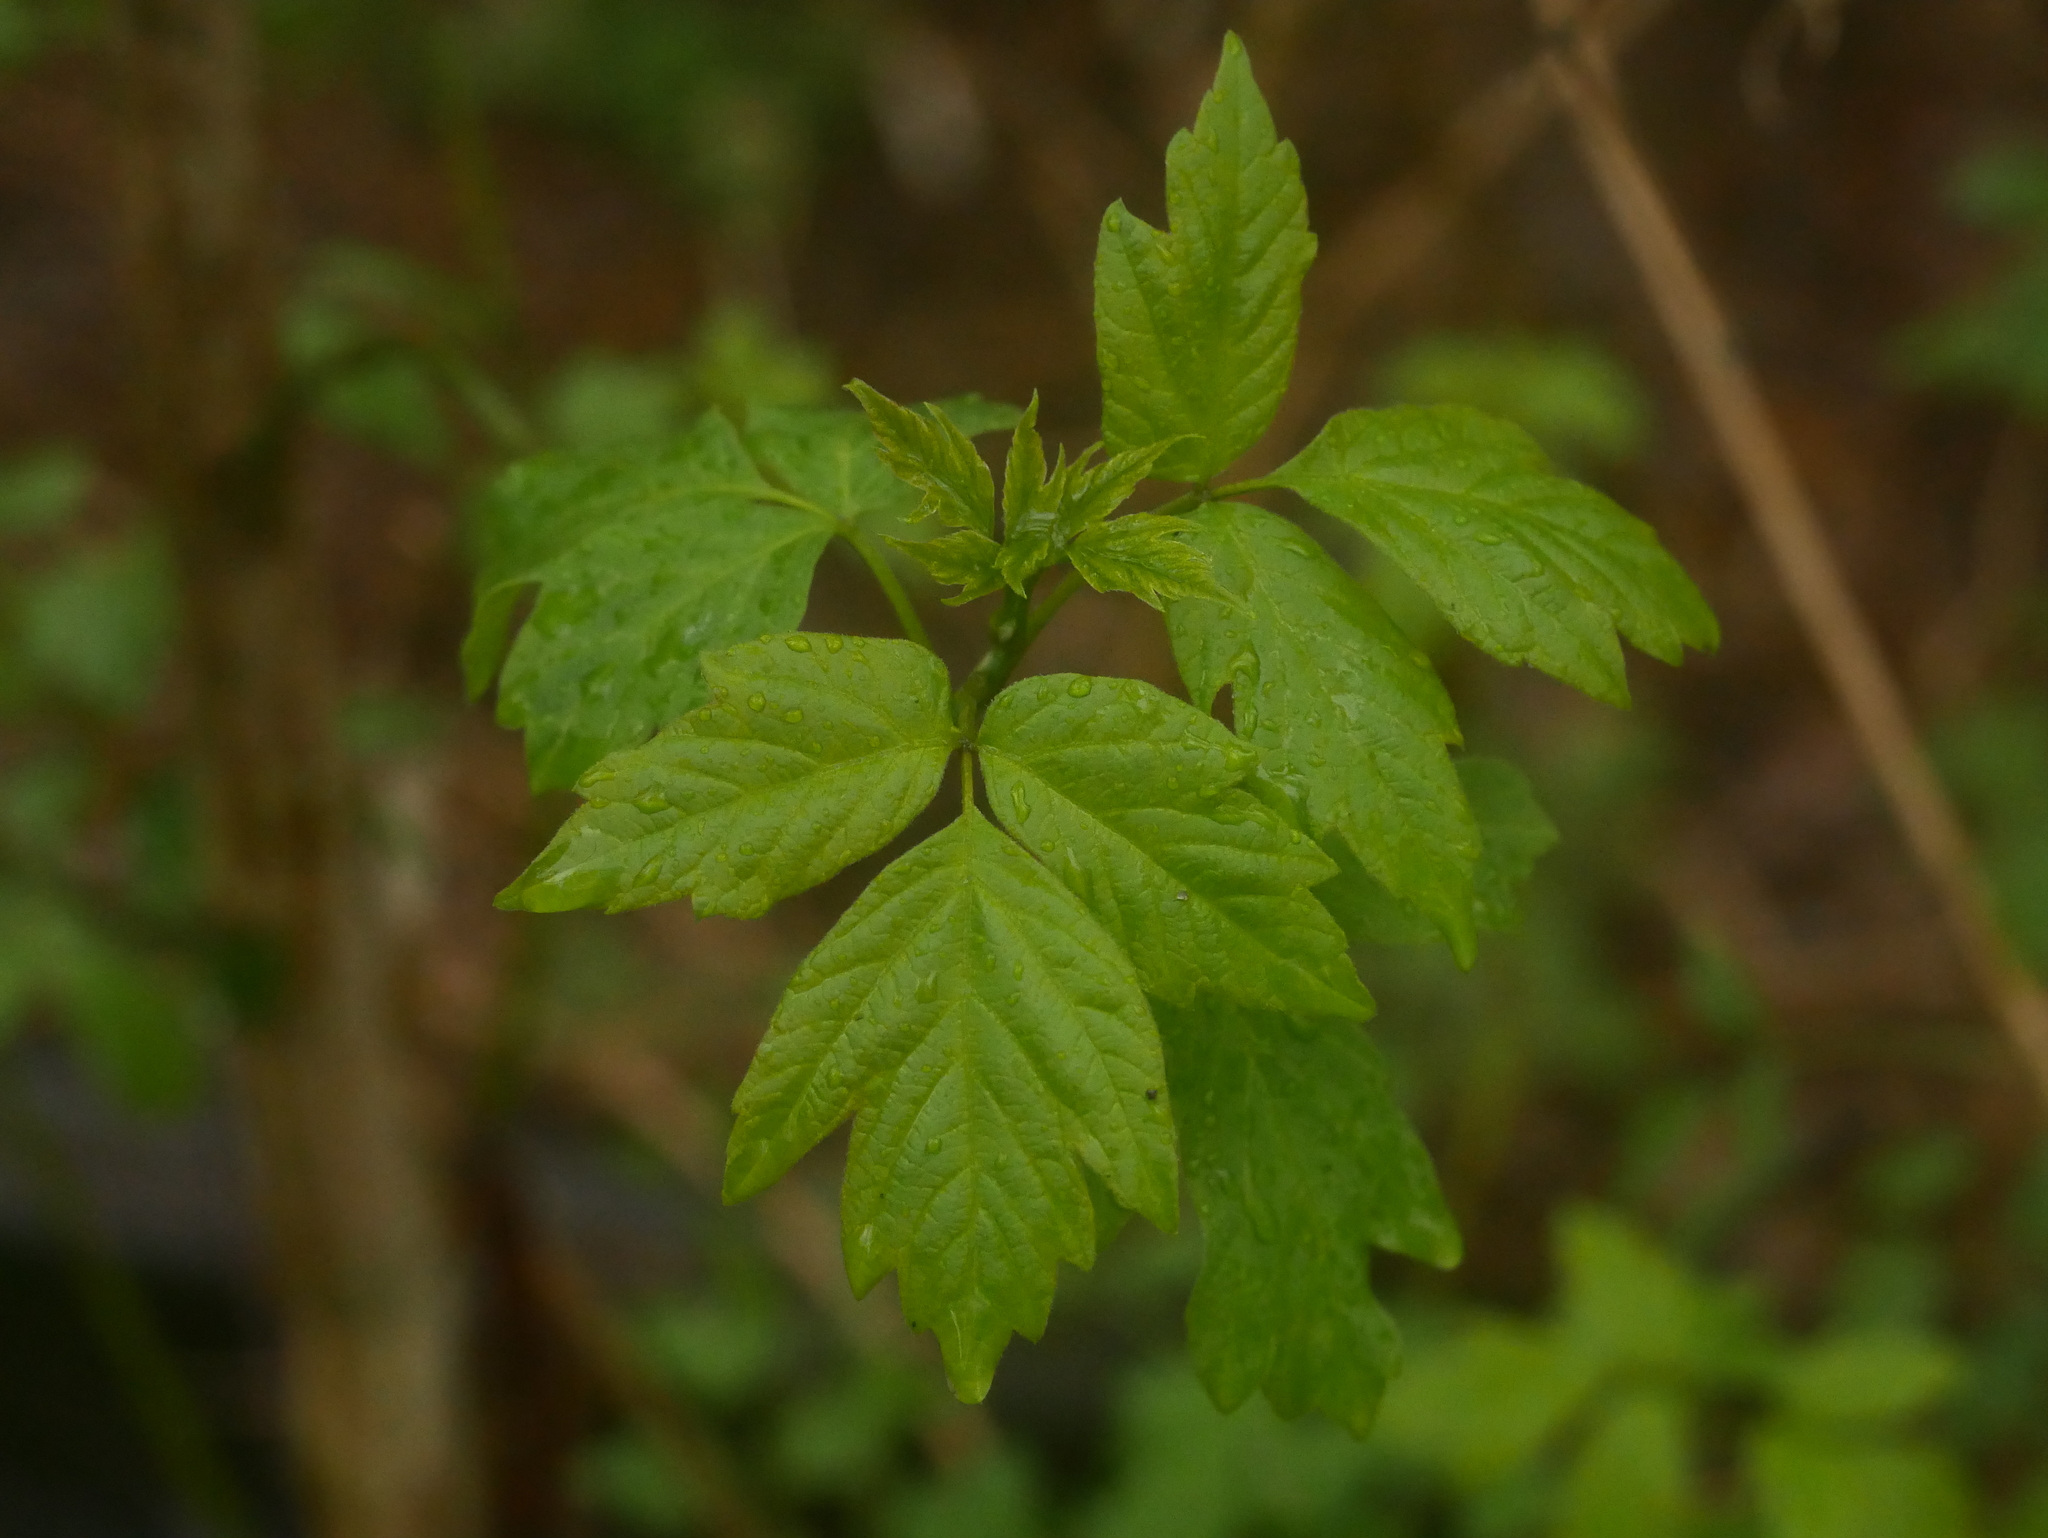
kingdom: Plantae
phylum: Tracheophyta
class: Magnoliopsida
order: Sapindales
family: Sapindaceae
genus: Acer
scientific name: Acer negundo
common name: Ashleaf maple
